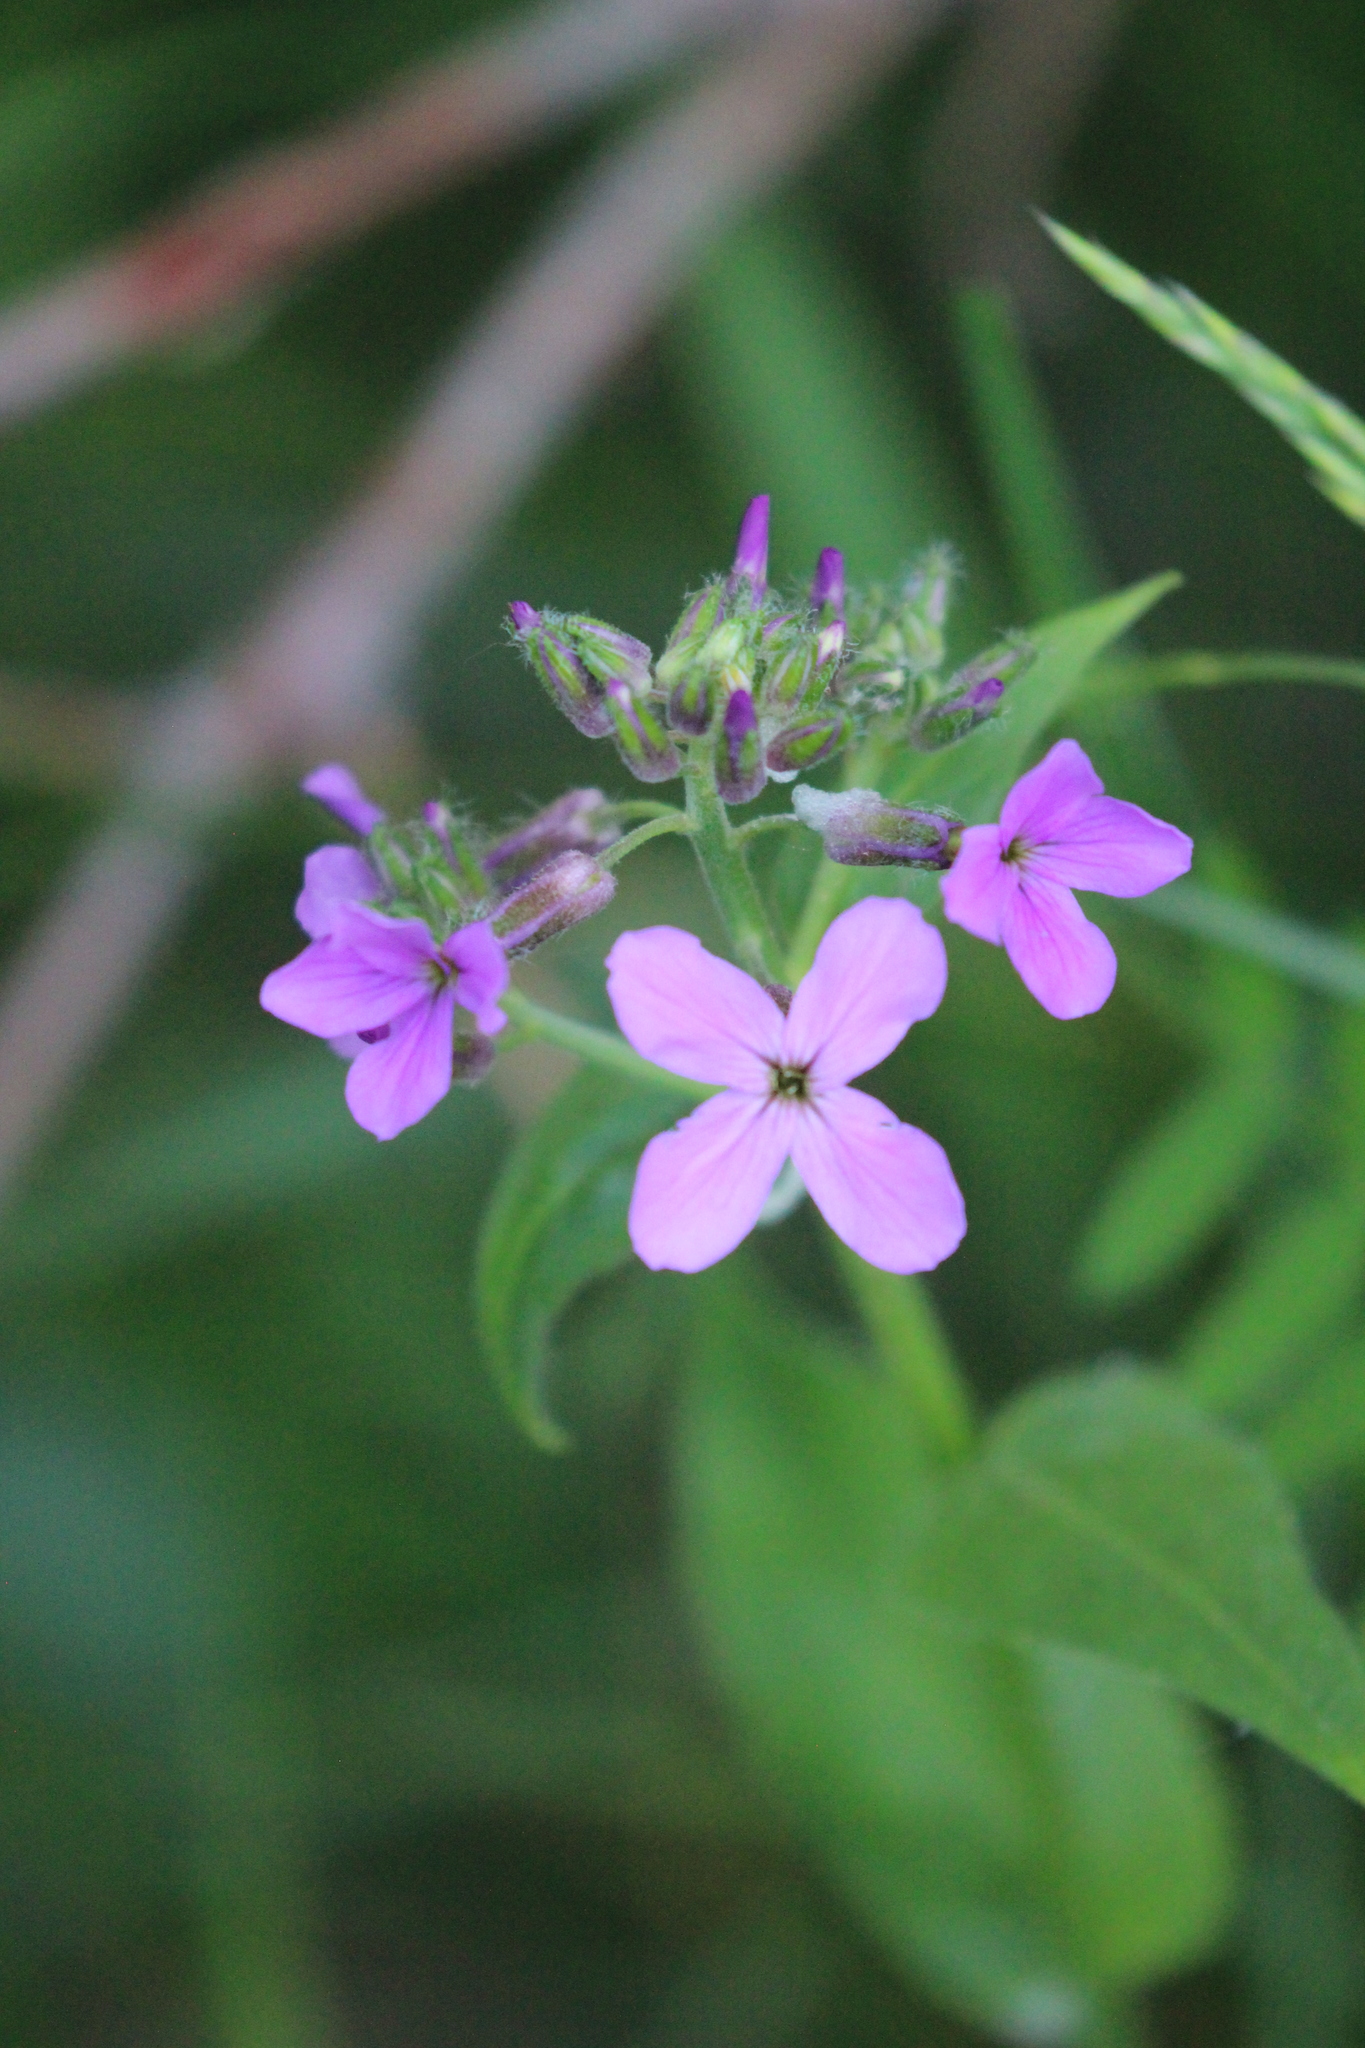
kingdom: Plantae
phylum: Tracheophyta
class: Magnoliopsida
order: Brassicales
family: Brassicaceae
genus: Hesperis
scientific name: Hesperis matronalis
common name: Dame's-violet
